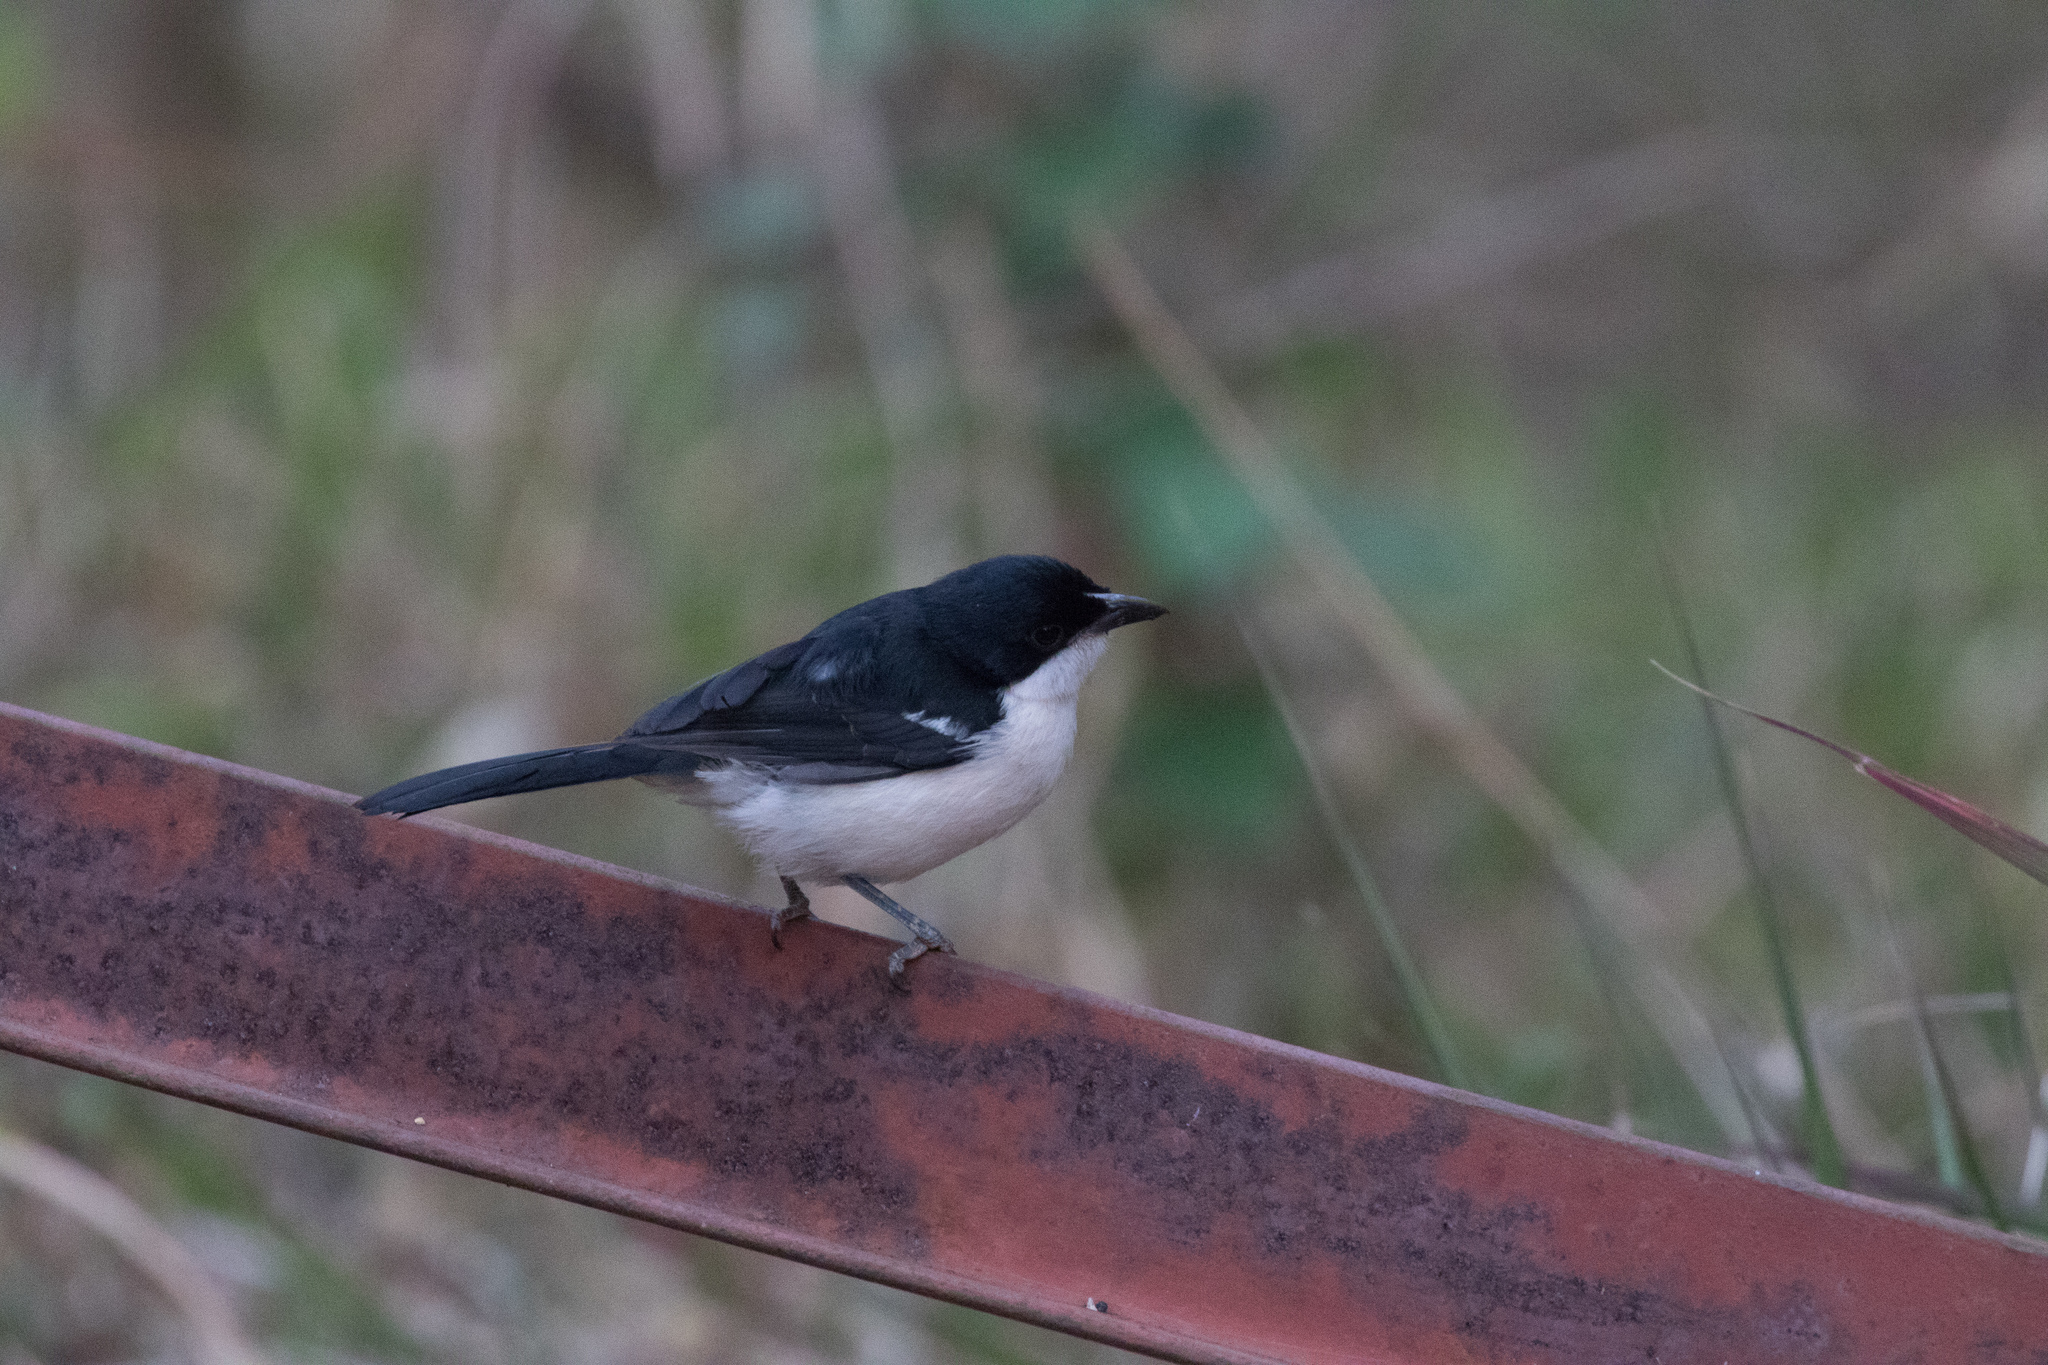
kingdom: Animalia
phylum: Chordata
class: Aves
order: Passeriformes
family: Malaconotidae
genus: Laniarius
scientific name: Laniarius major
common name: Tropical boubou
